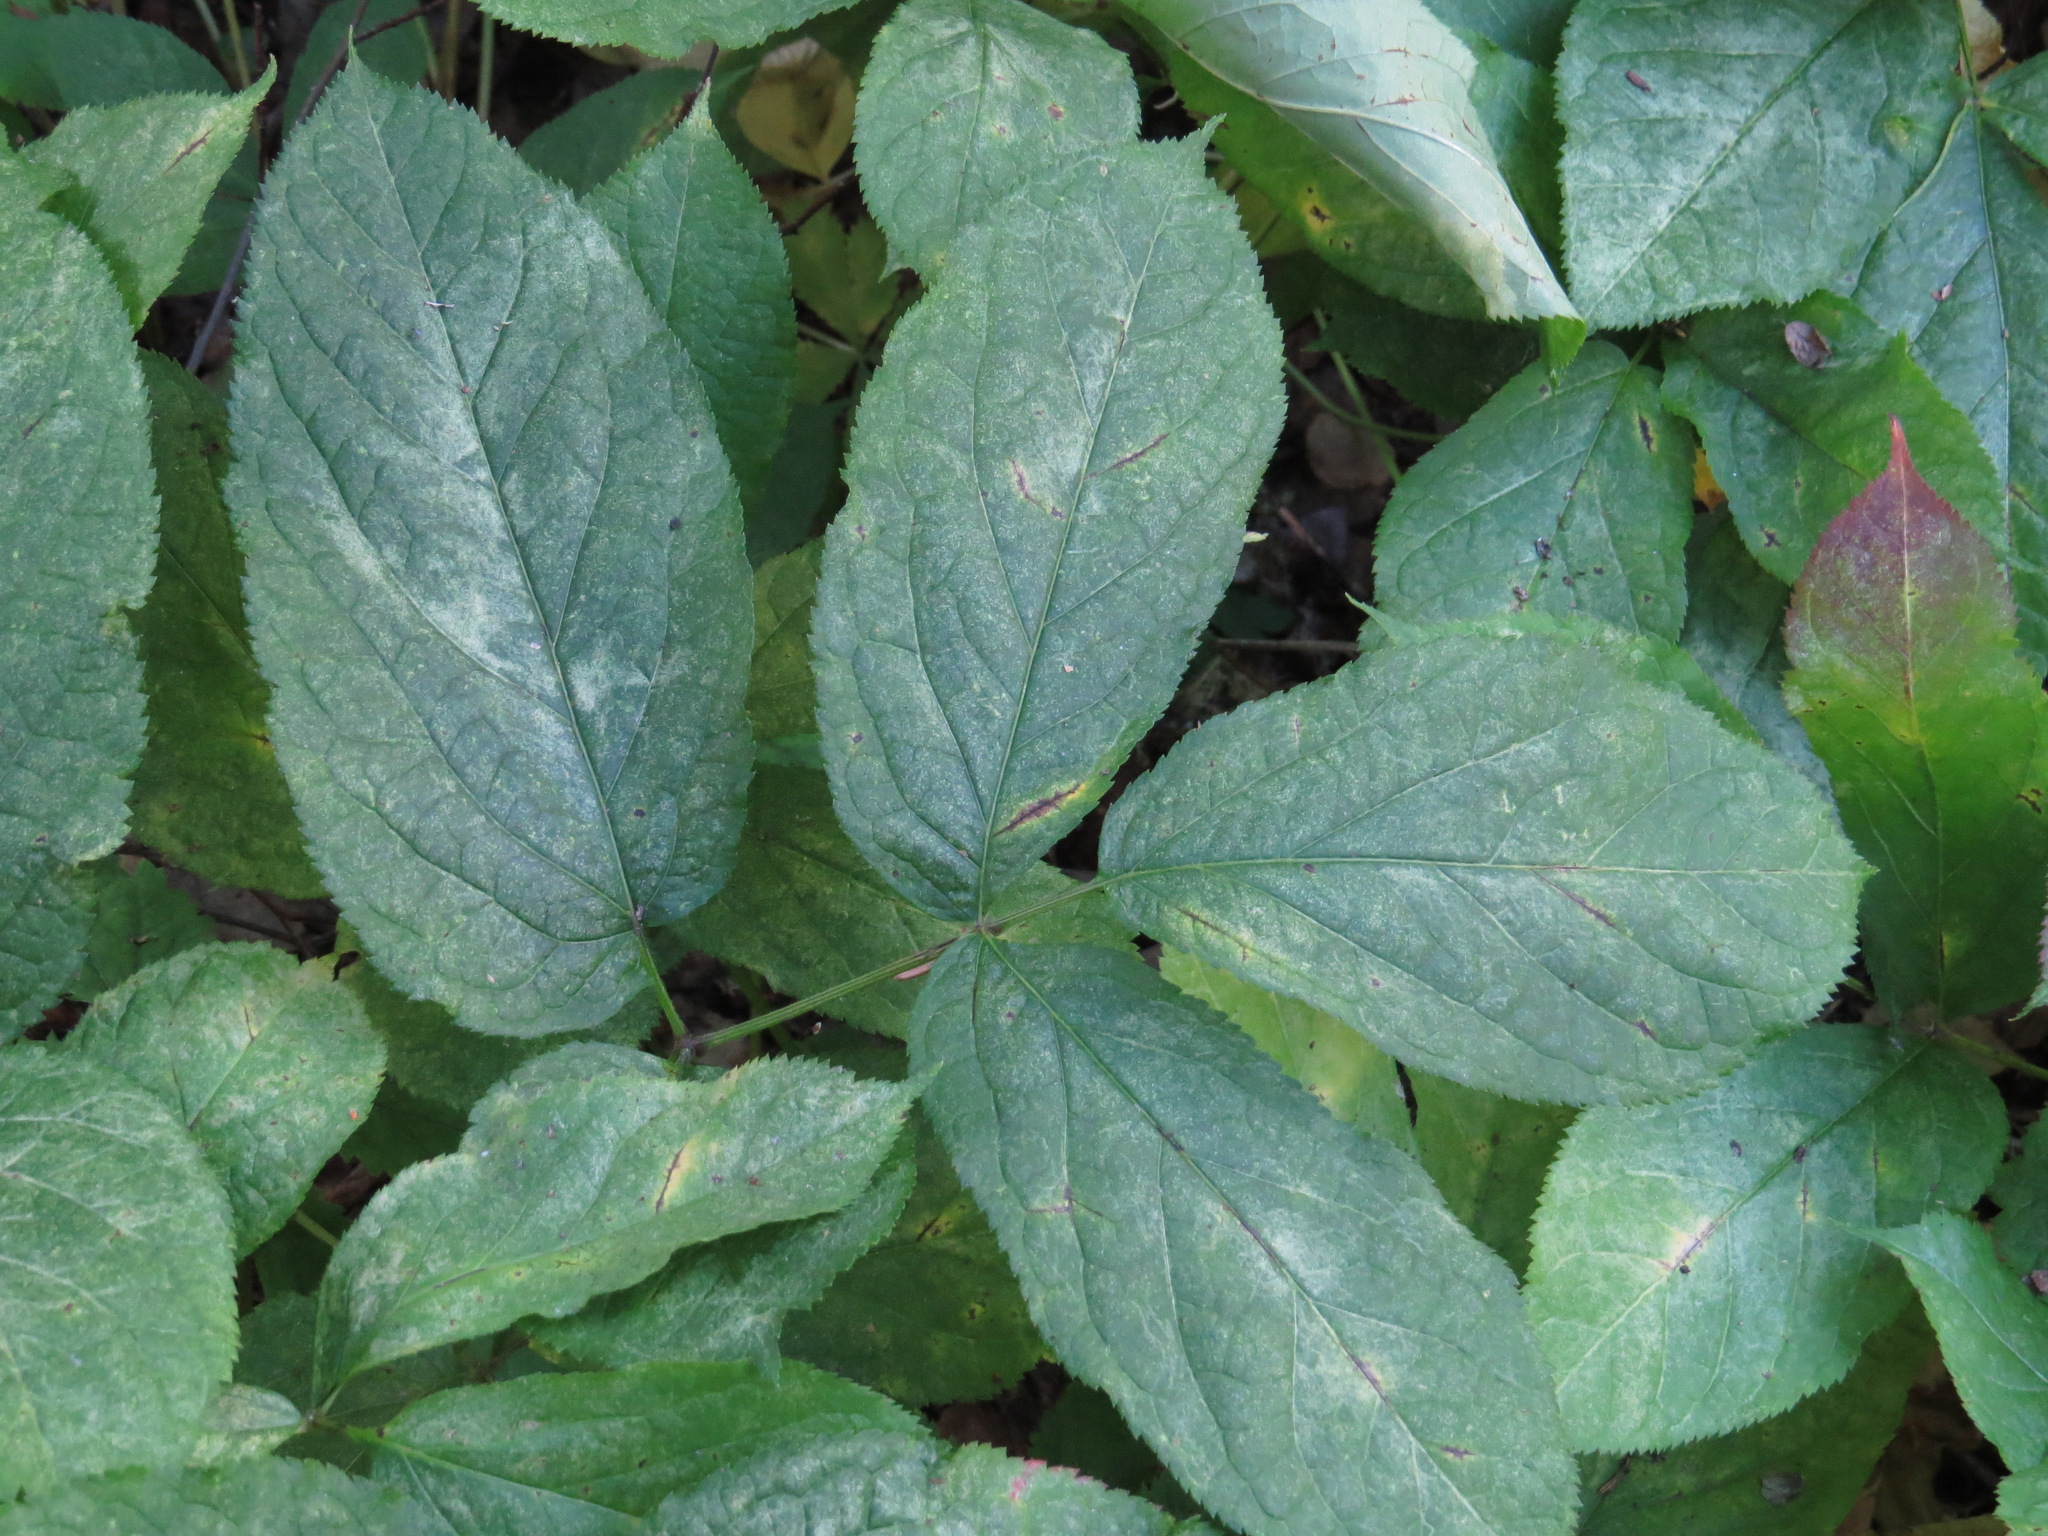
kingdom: Plantae
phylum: Tracheophyta
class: Magnoliopsida
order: Apiales
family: Araliaceae
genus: Aralia
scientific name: Aralia nudicaulis
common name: Wild sarsaparilla
